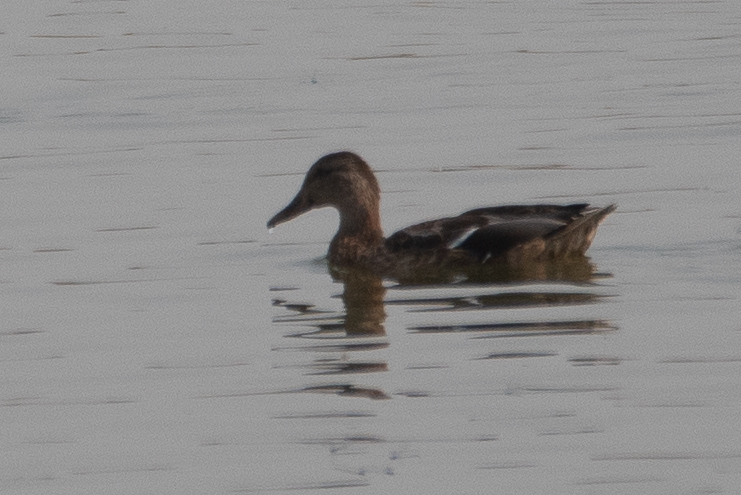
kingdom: Animalia
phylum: Chordata
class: Aves
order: Anseriformes
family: Anatidae
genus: Anas
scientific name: Anas platyrhynchos
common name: Mallard
